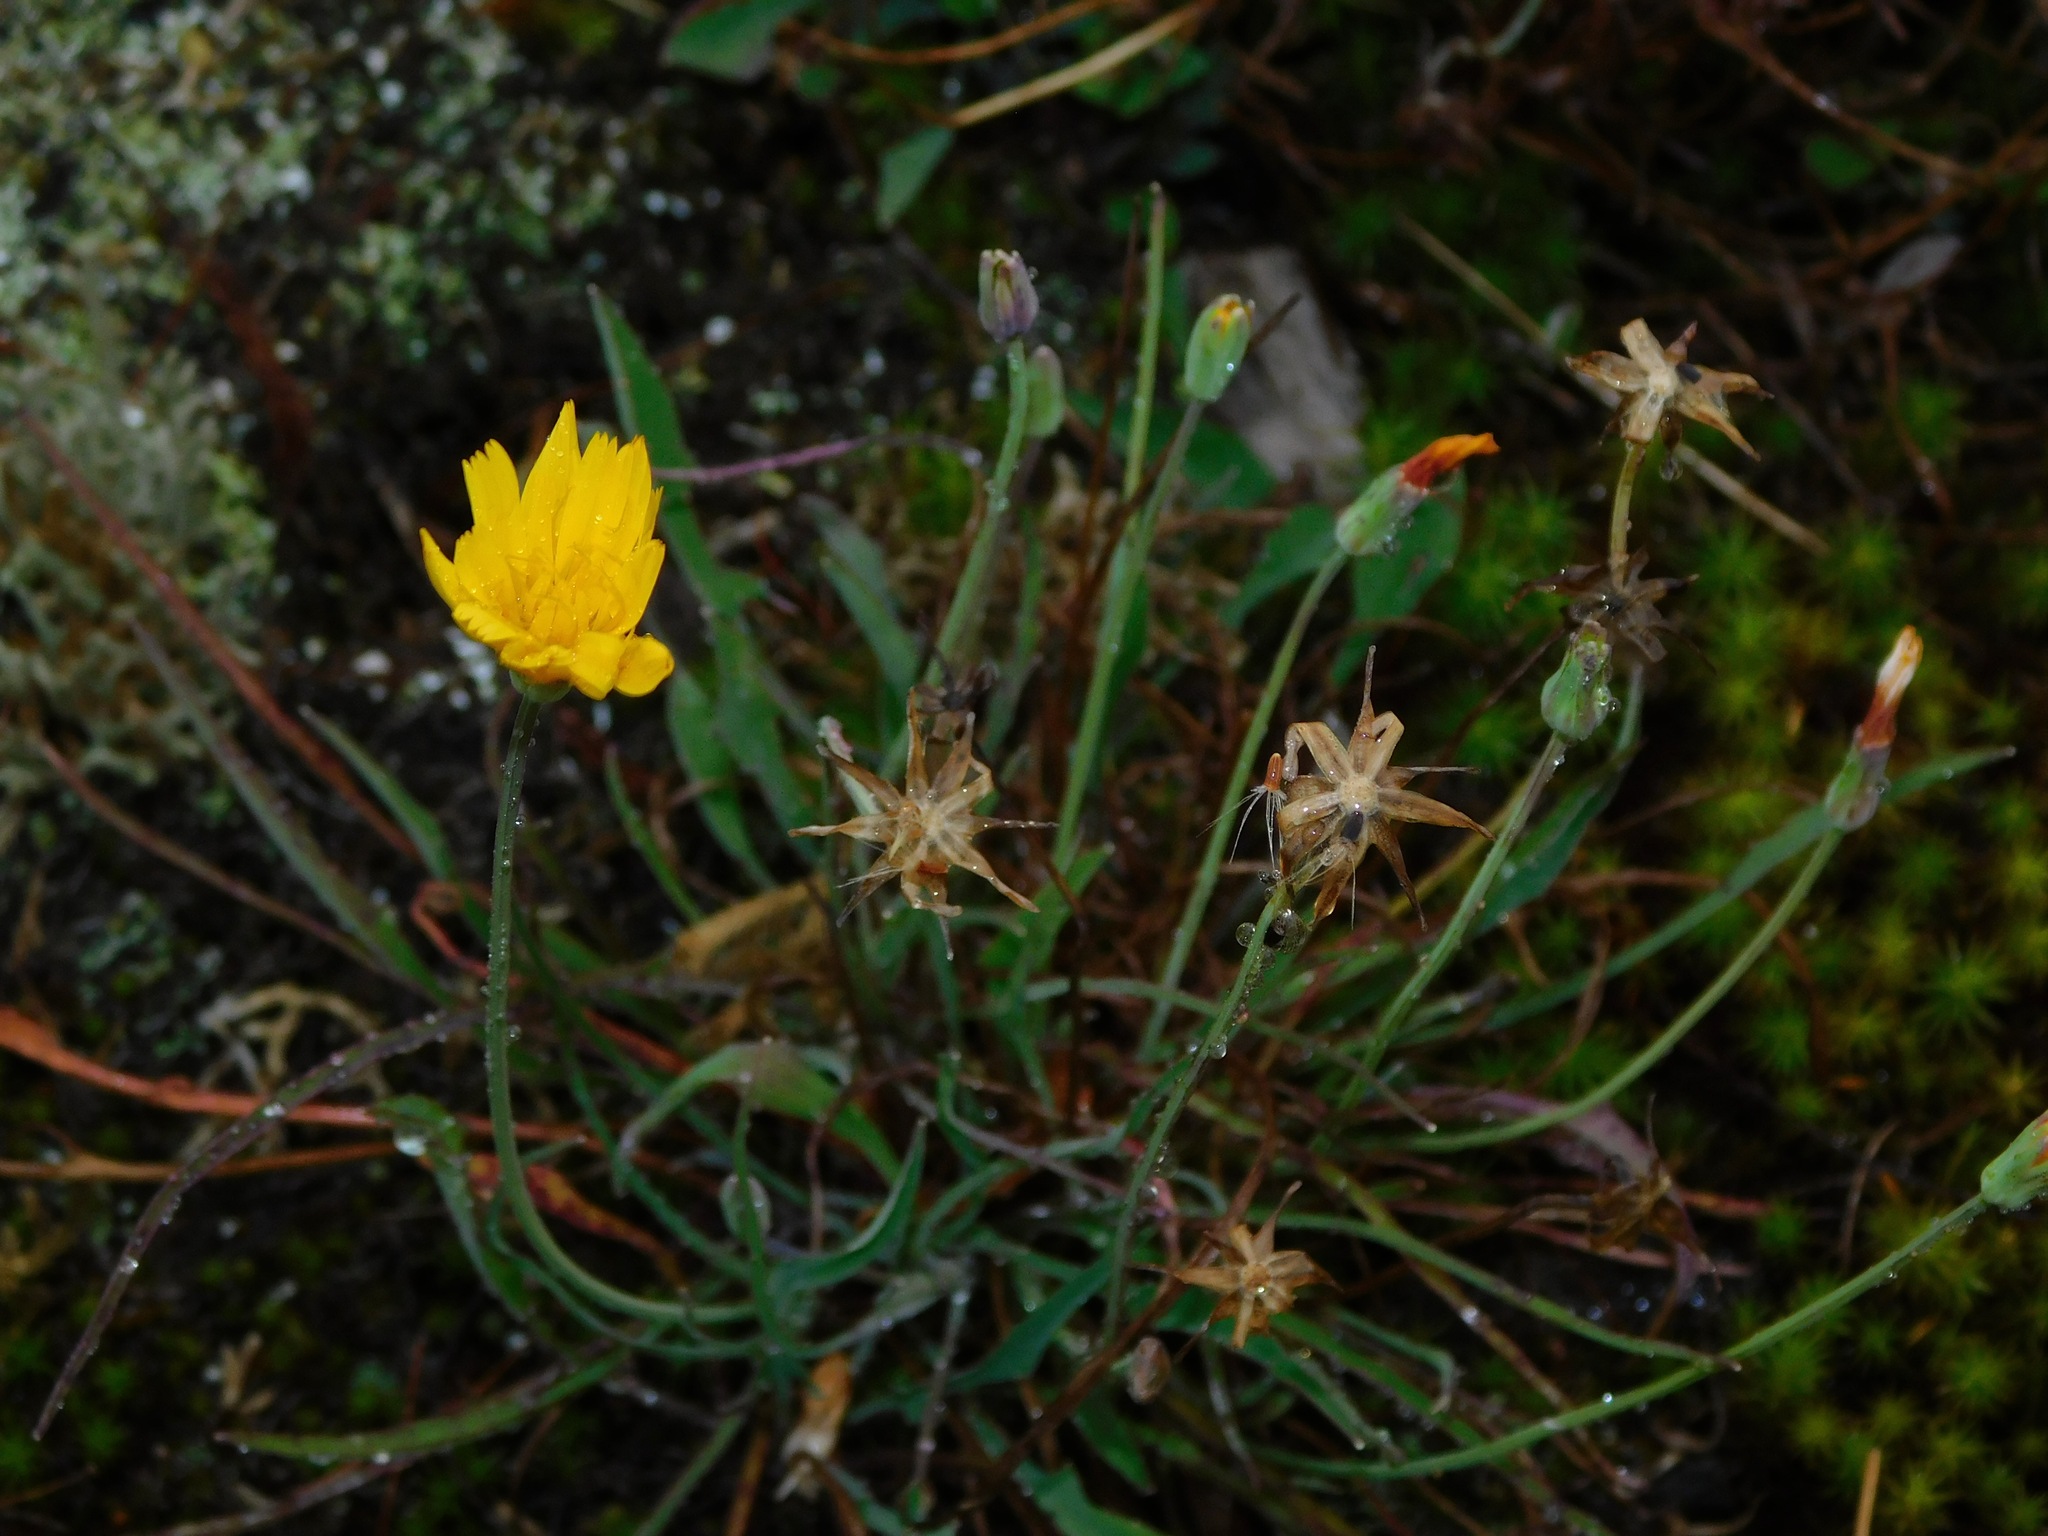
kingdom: Plantae
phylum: Tracheophyta
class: Magnoliopsida
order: Asterales
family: Asteraceae
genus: Krigia
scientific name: Krigia montana
